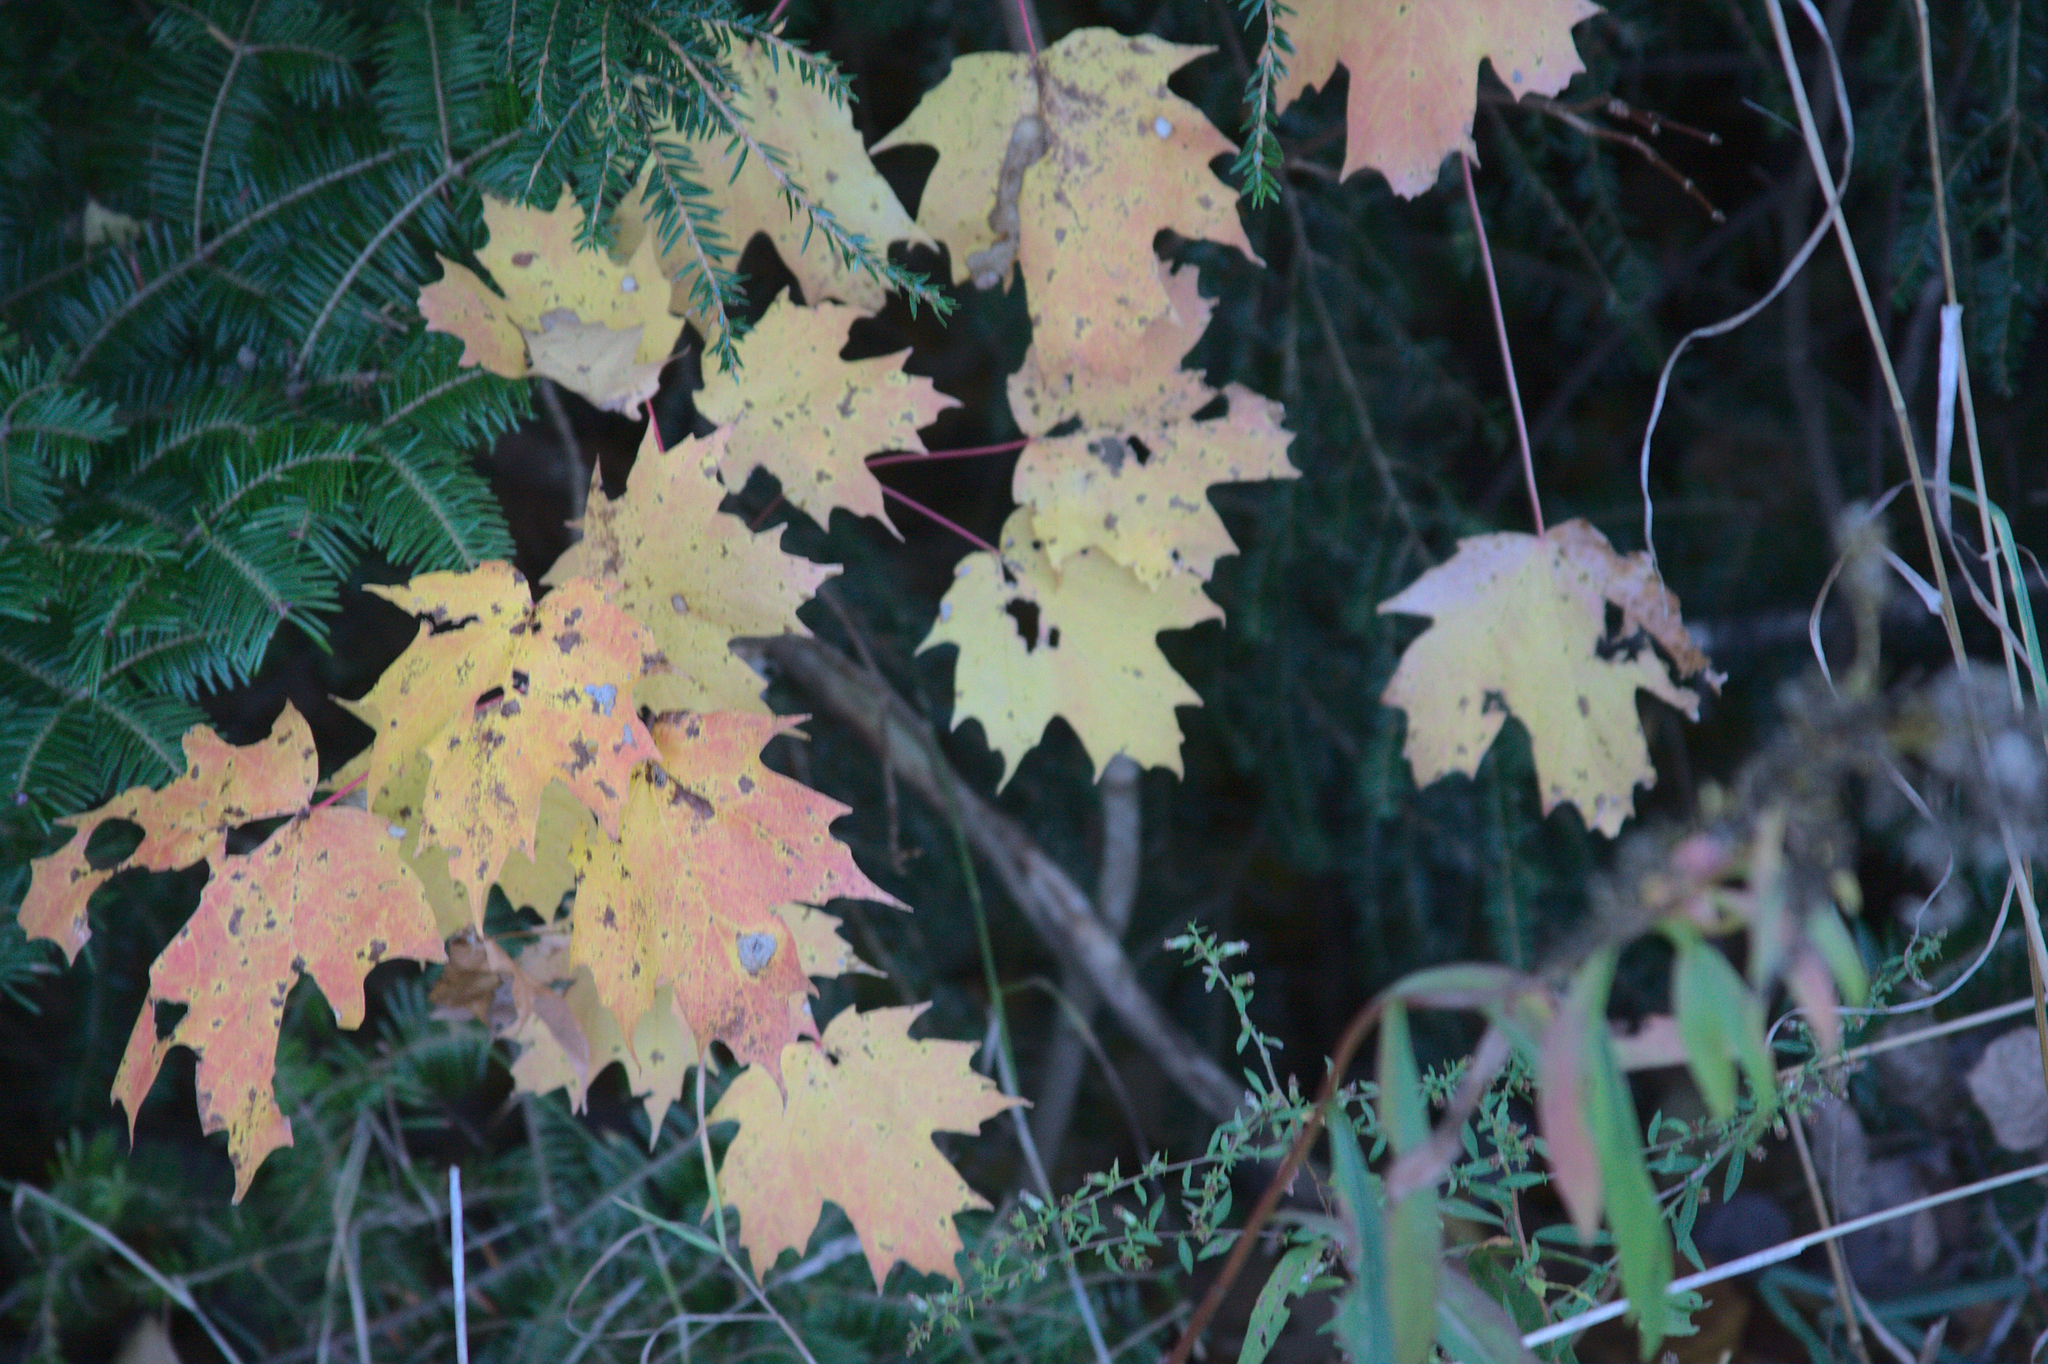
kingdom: Plantae
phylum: Tracheophyta
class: Magnoliopsida
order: Sapindales
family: Sapindaceae
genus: Acer
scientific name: Acer saccharum
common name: Sugar maple
